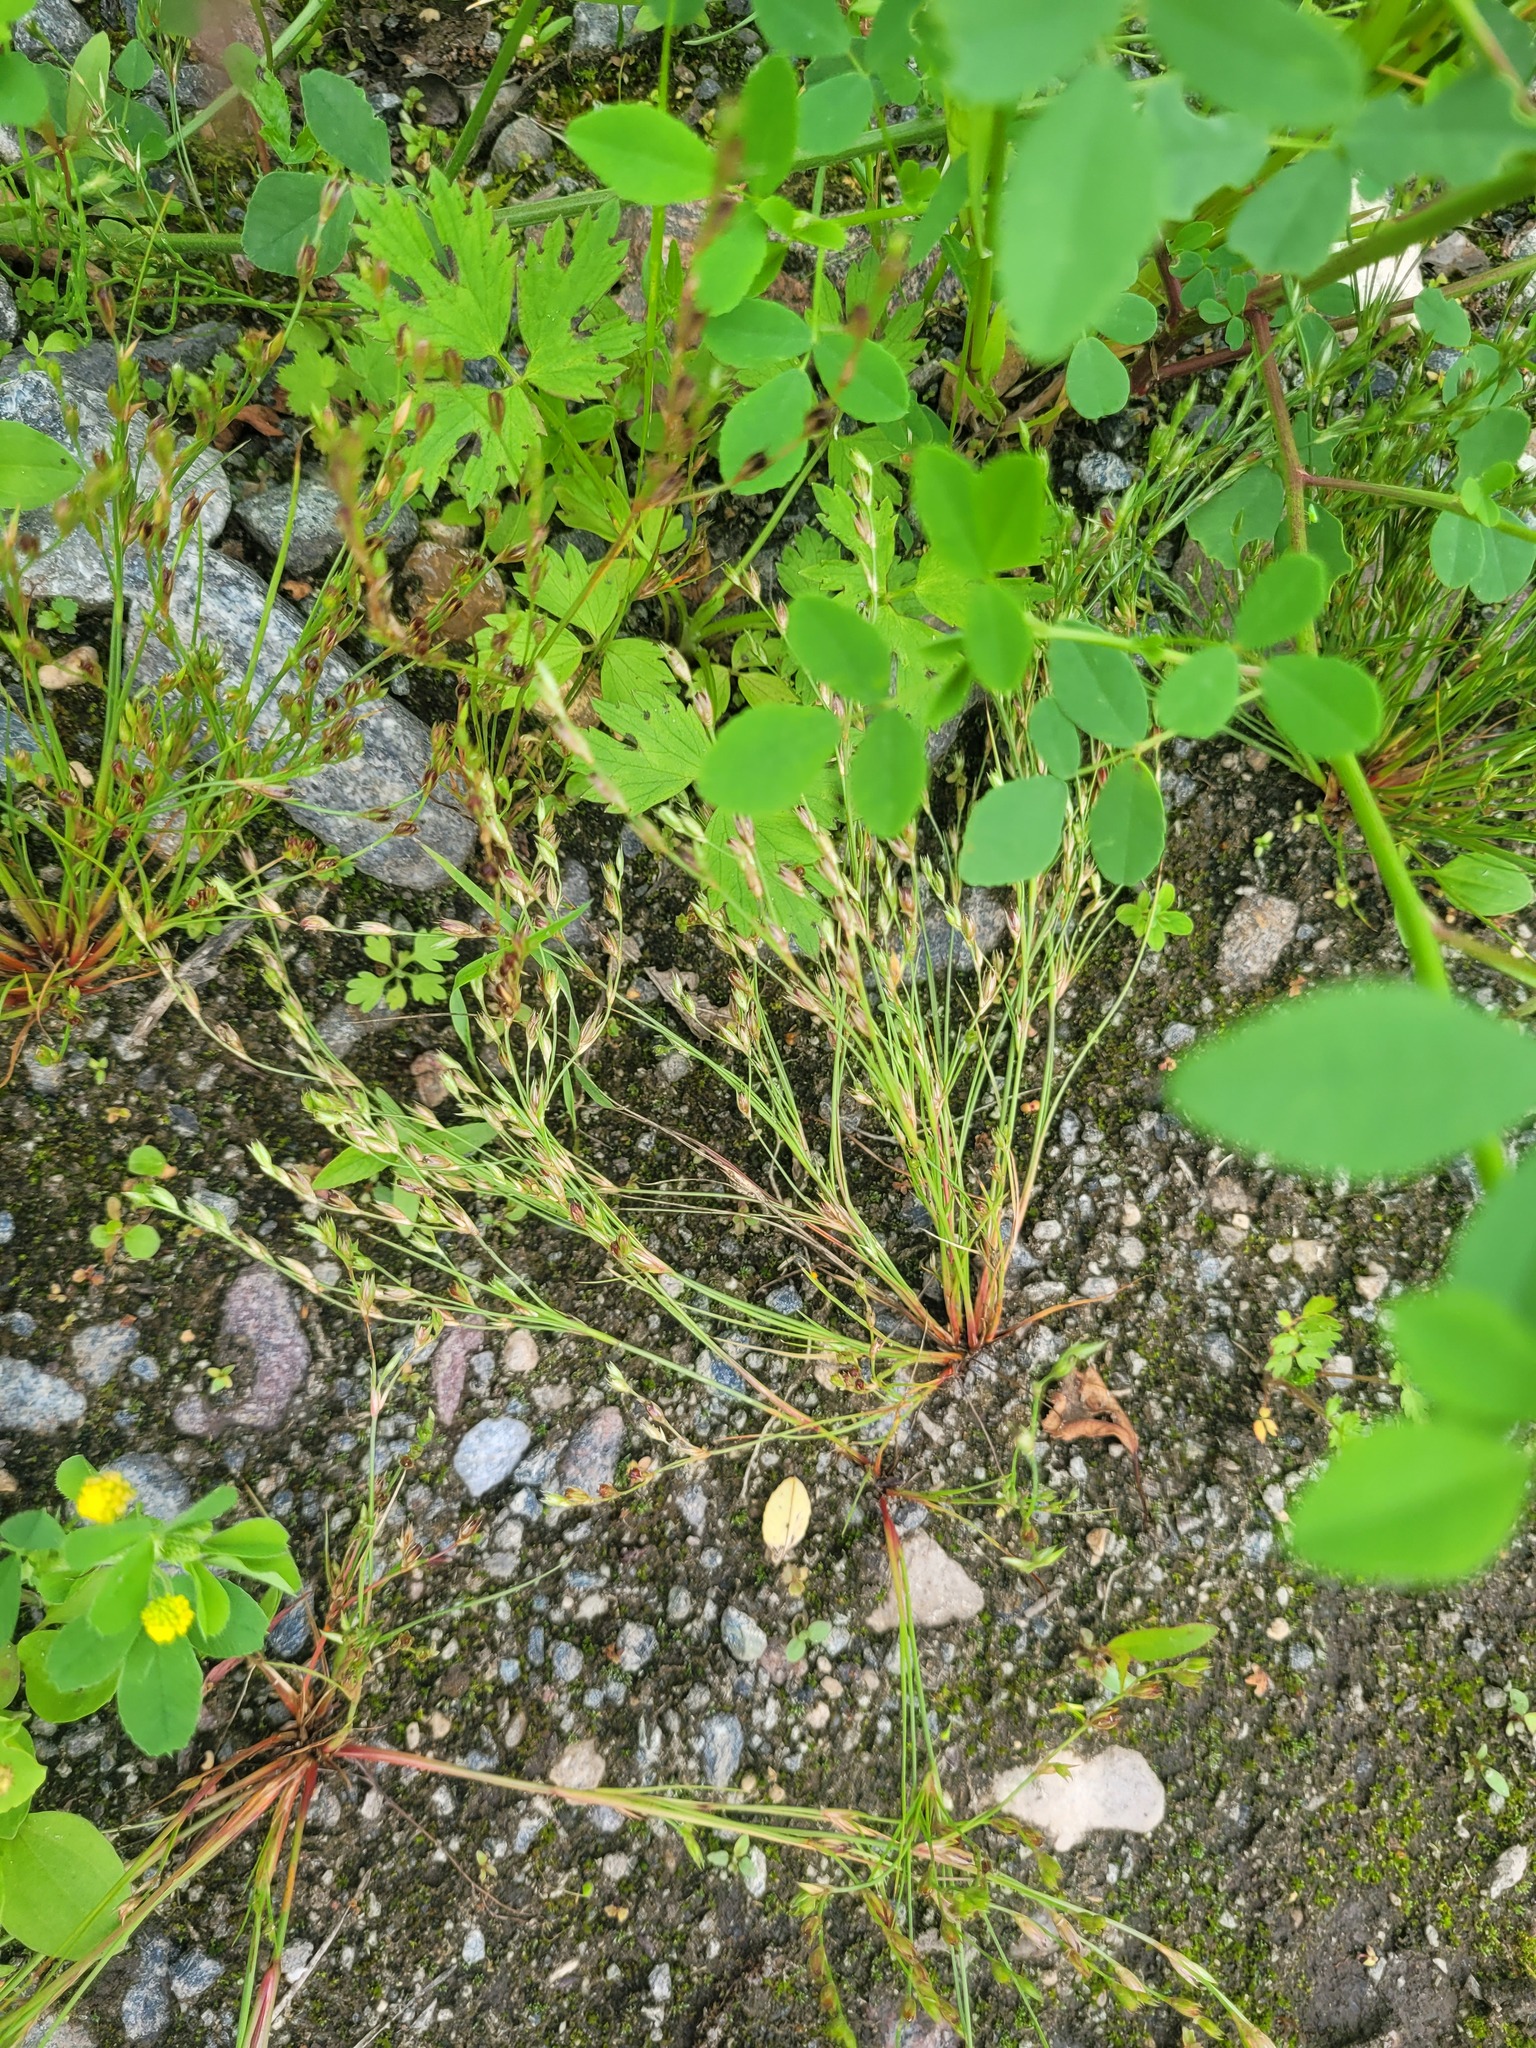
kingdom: Plantae
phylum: Tracheophyta
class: Liliopsida
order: Poales
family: Juncaceae
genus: Juncus
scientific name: Juncus bufonius
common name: Toad rush
